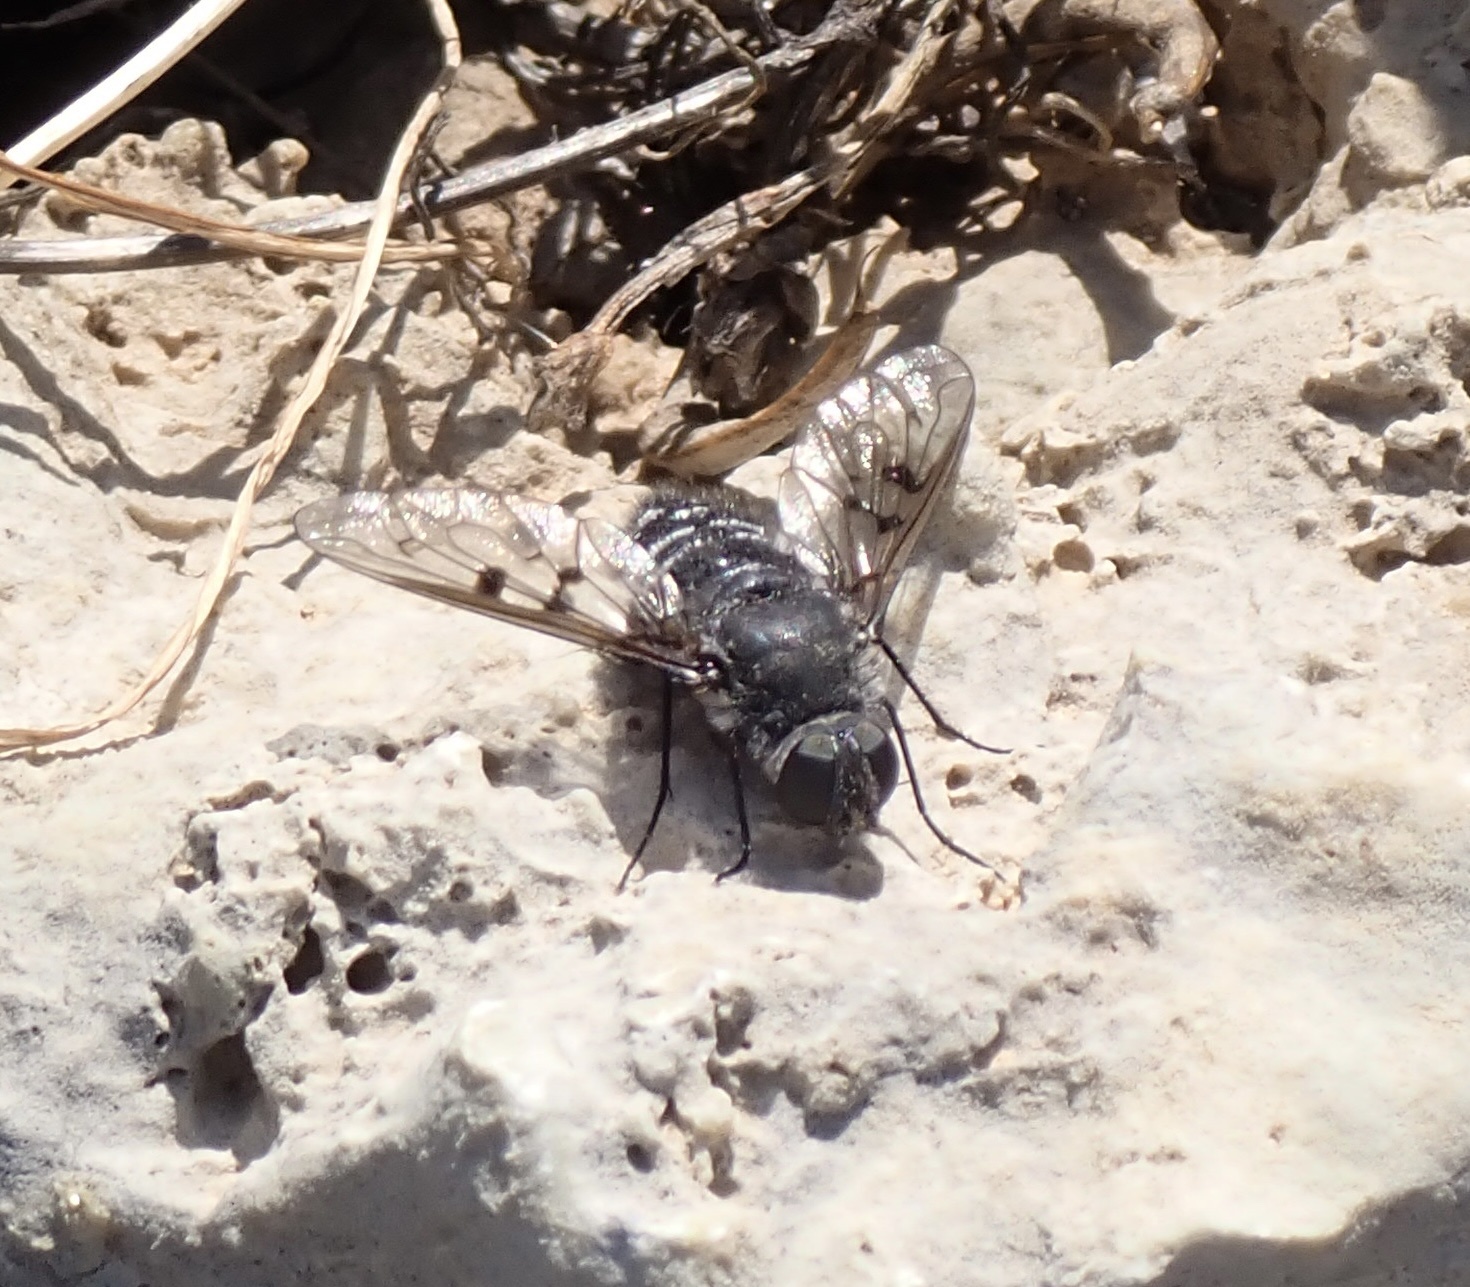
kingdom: Animalia
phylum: Arthropoda
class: Insecta
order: Diptera
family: Bombyliidae
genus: Spogostylum
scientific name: Spogostylum tripunctatum
